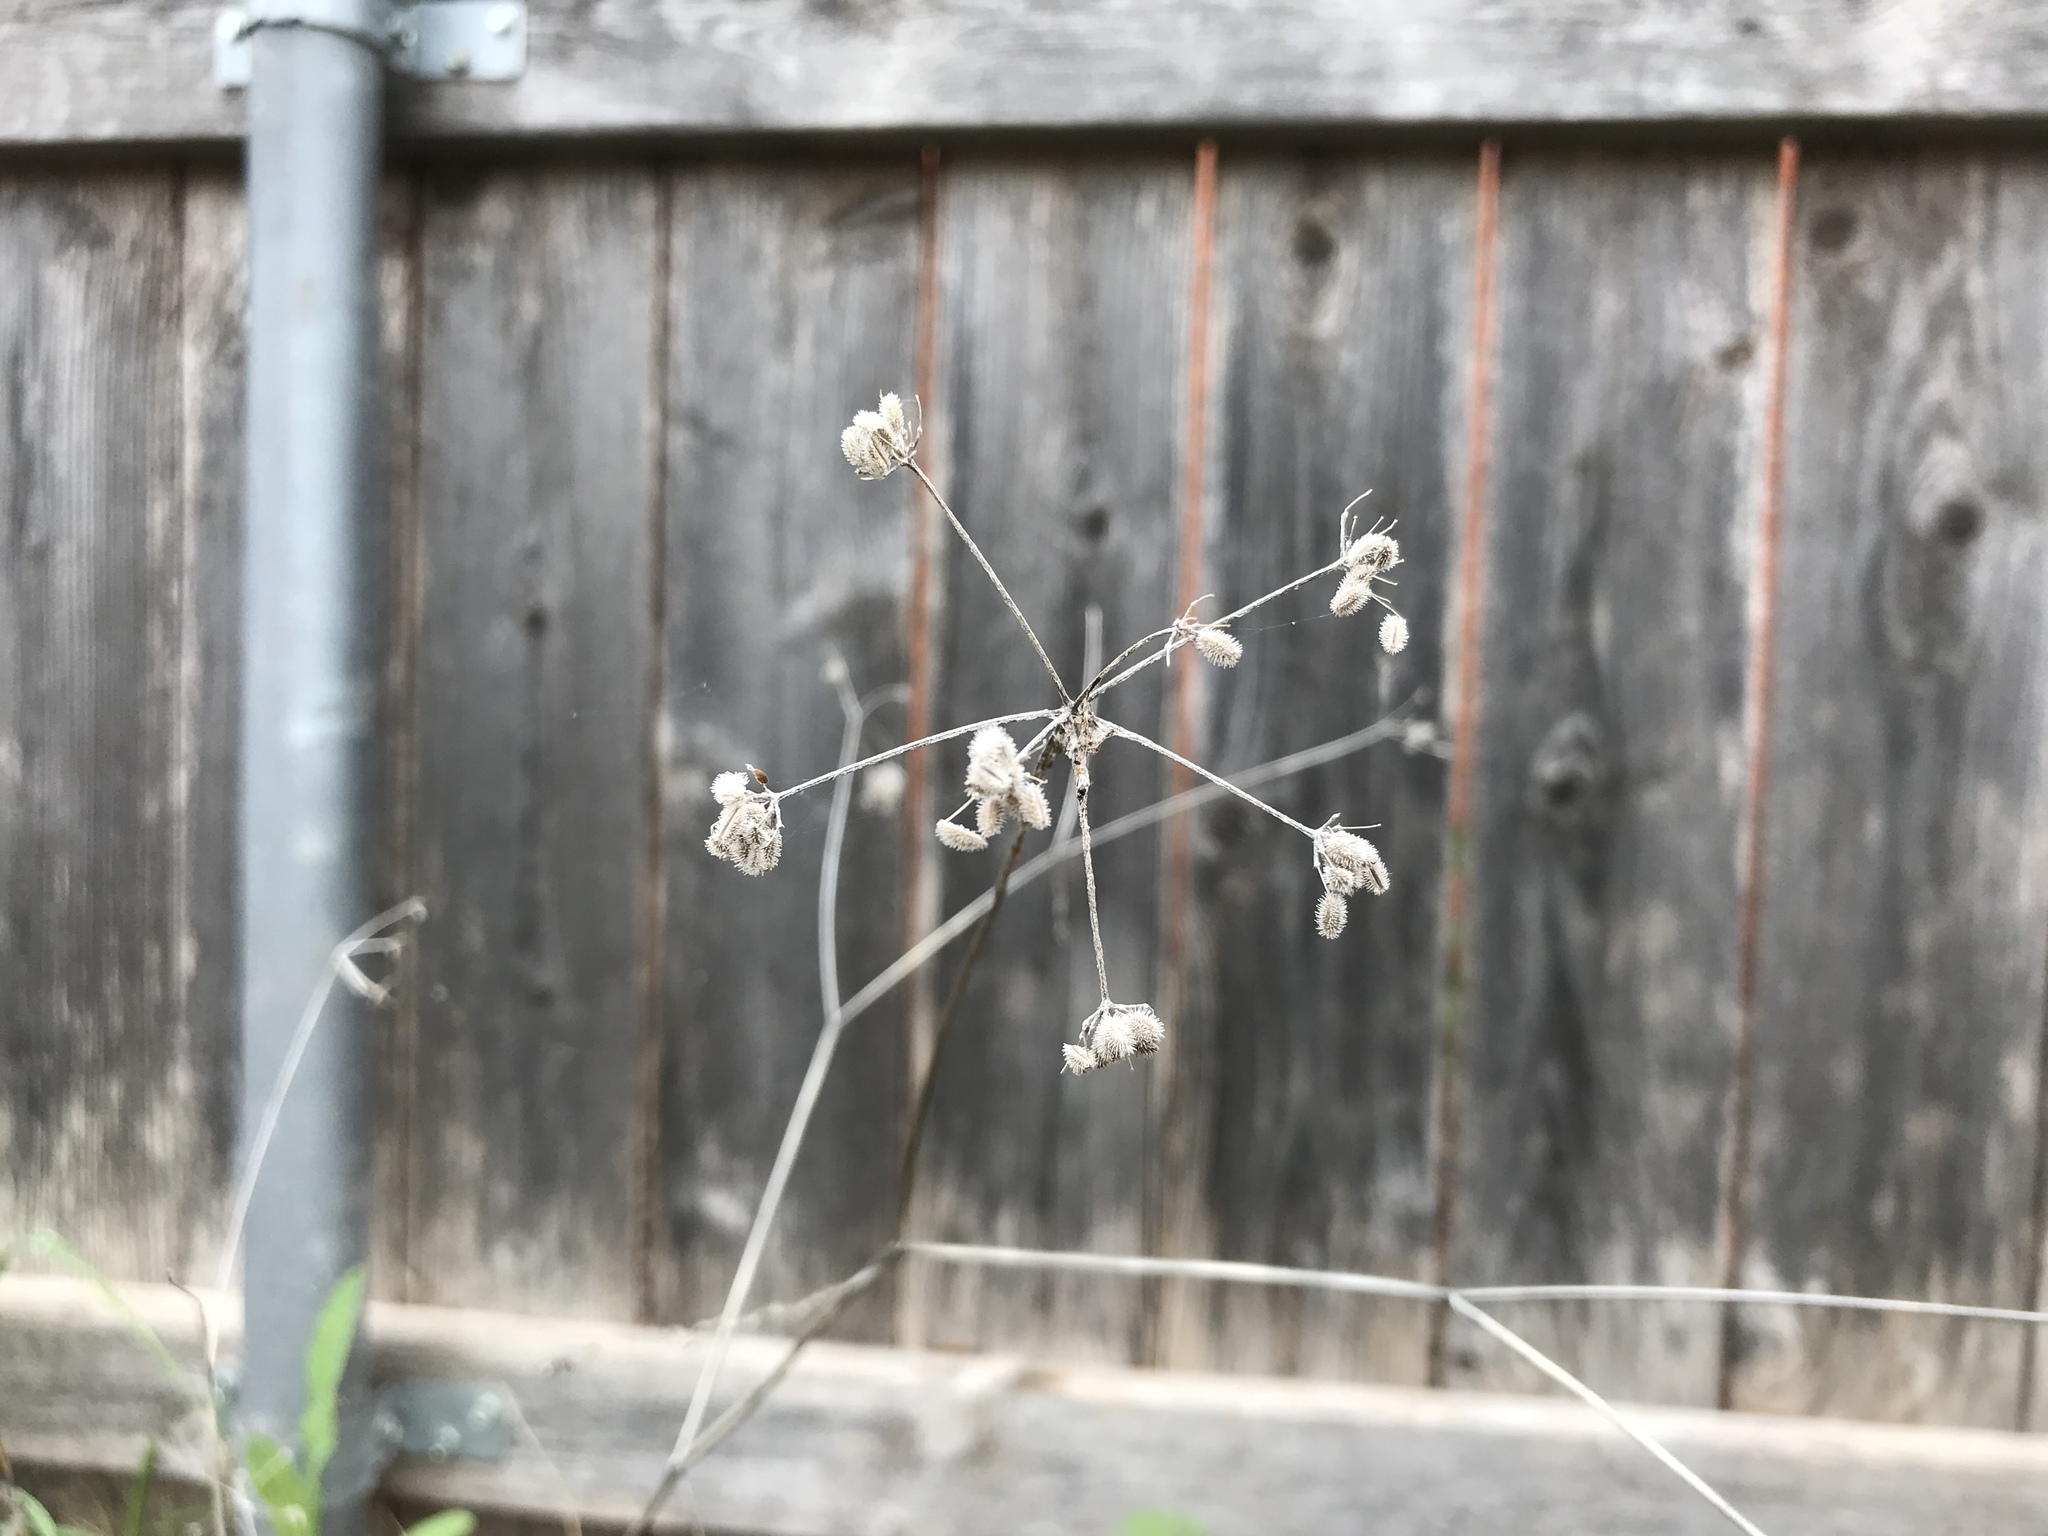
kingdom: Plantae
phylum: Tracheophyta
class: Magnoliopsida
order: Apiales
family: Apiaceae
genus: Torilis
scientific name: Torilis arvensis
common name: Spreading hedge-parsley
